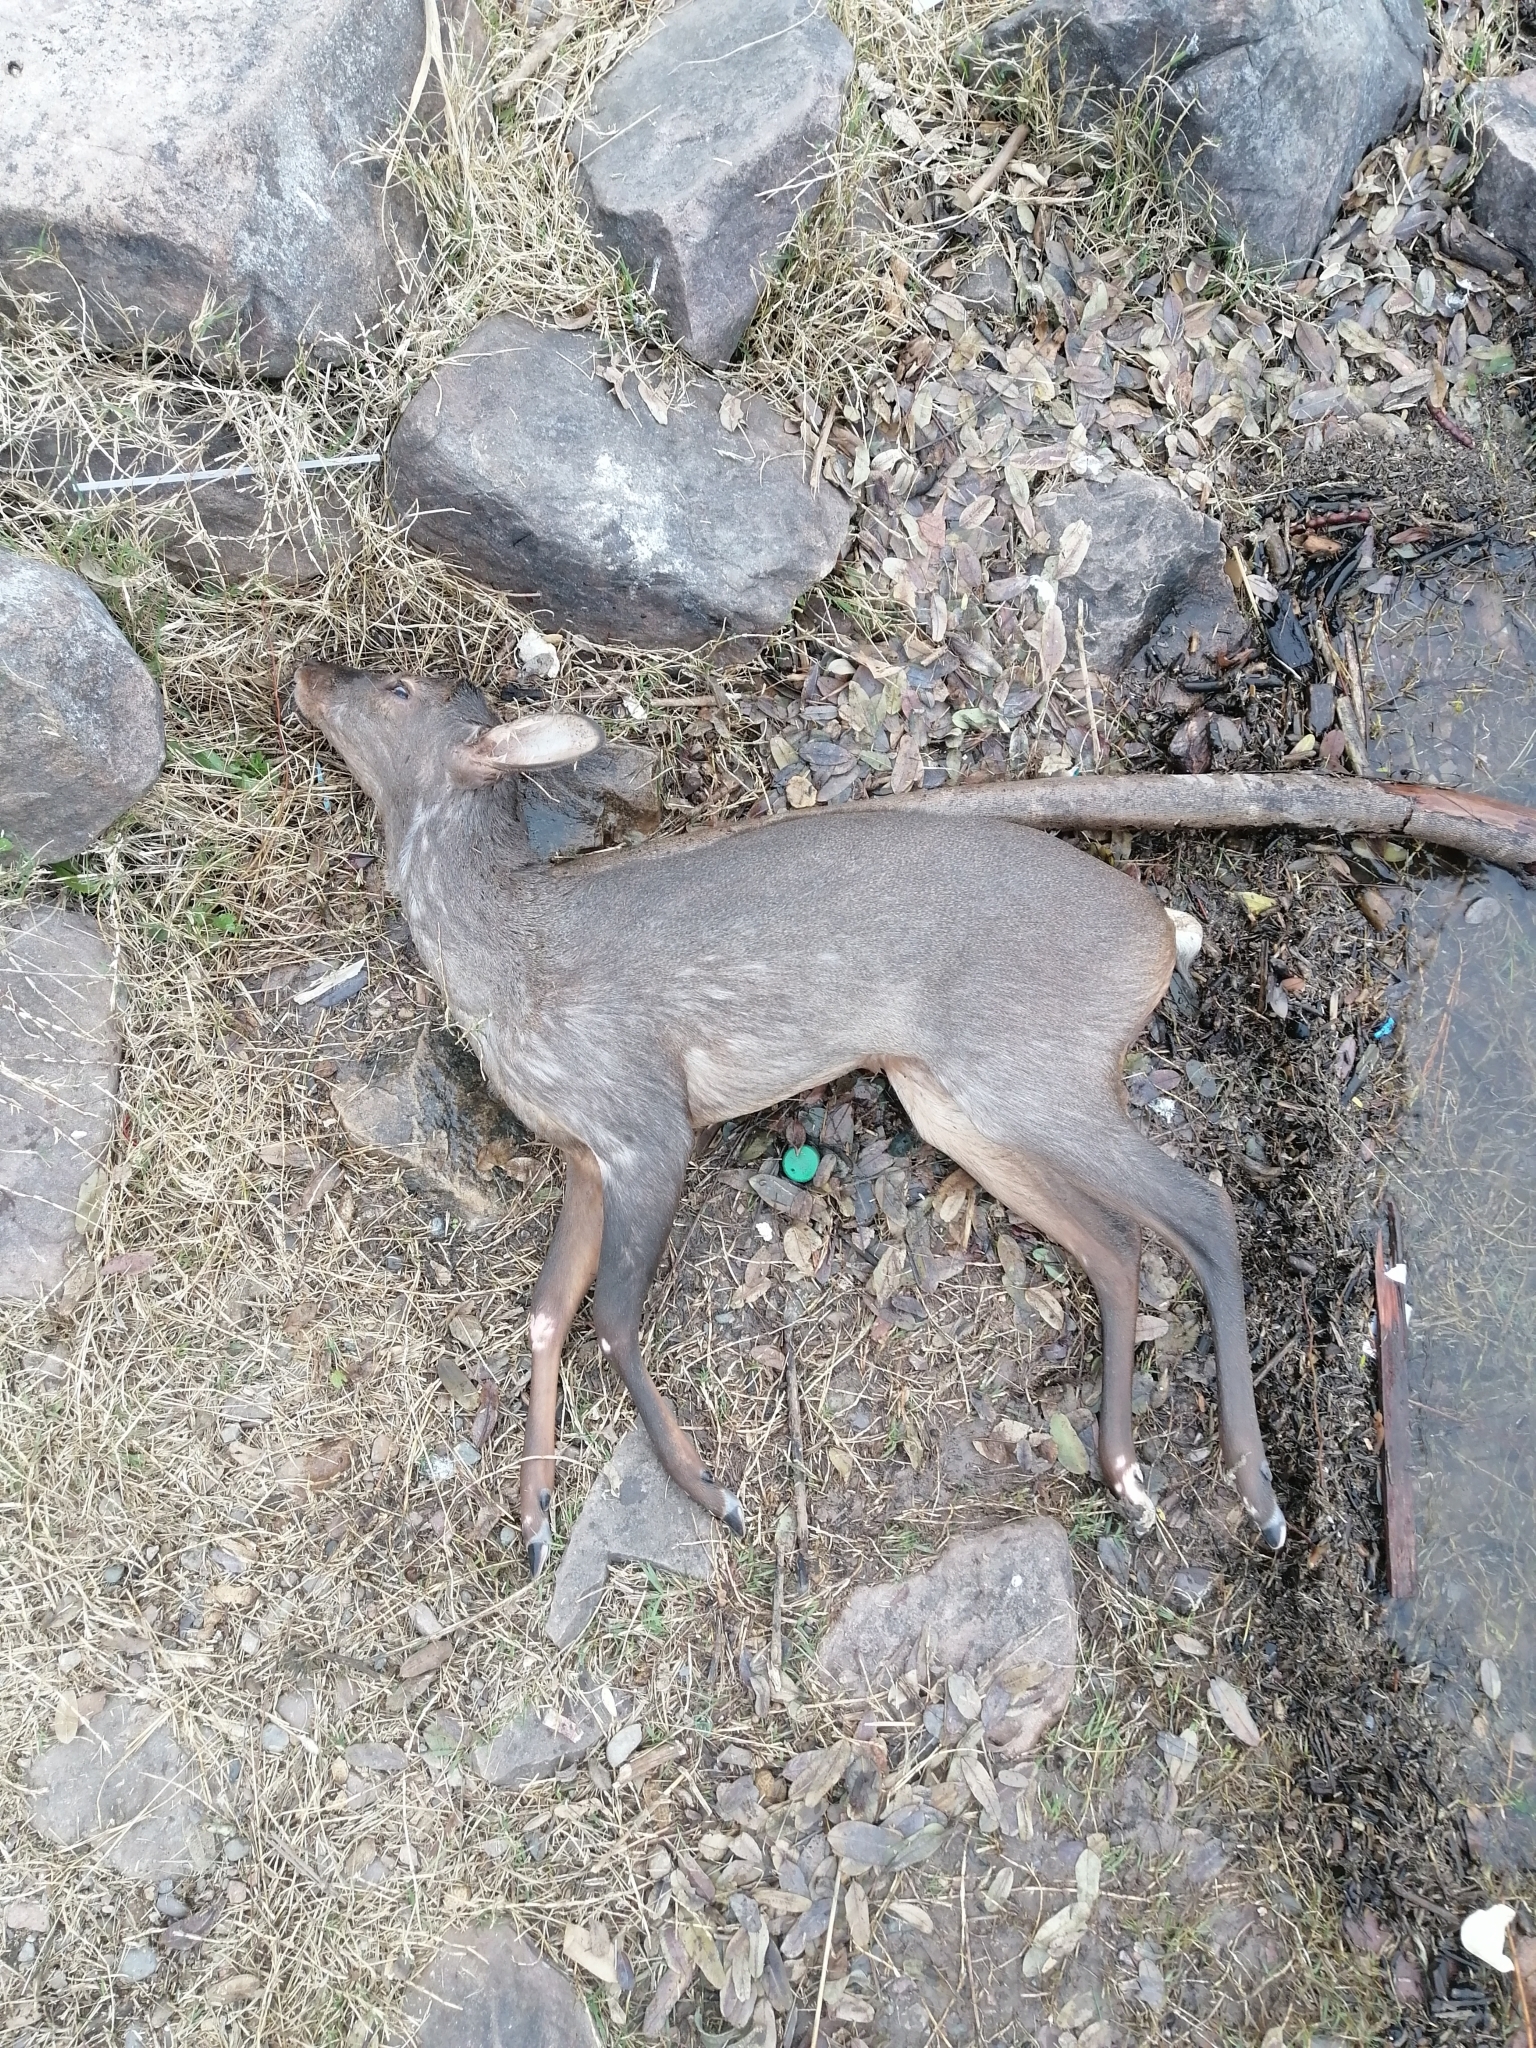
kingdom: Animalia
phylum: Chordata
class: Mammalia
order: Artiodactyla
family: Cervidae
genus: Mazama
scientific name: Mazama gouazoubira
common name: Gray brocket
